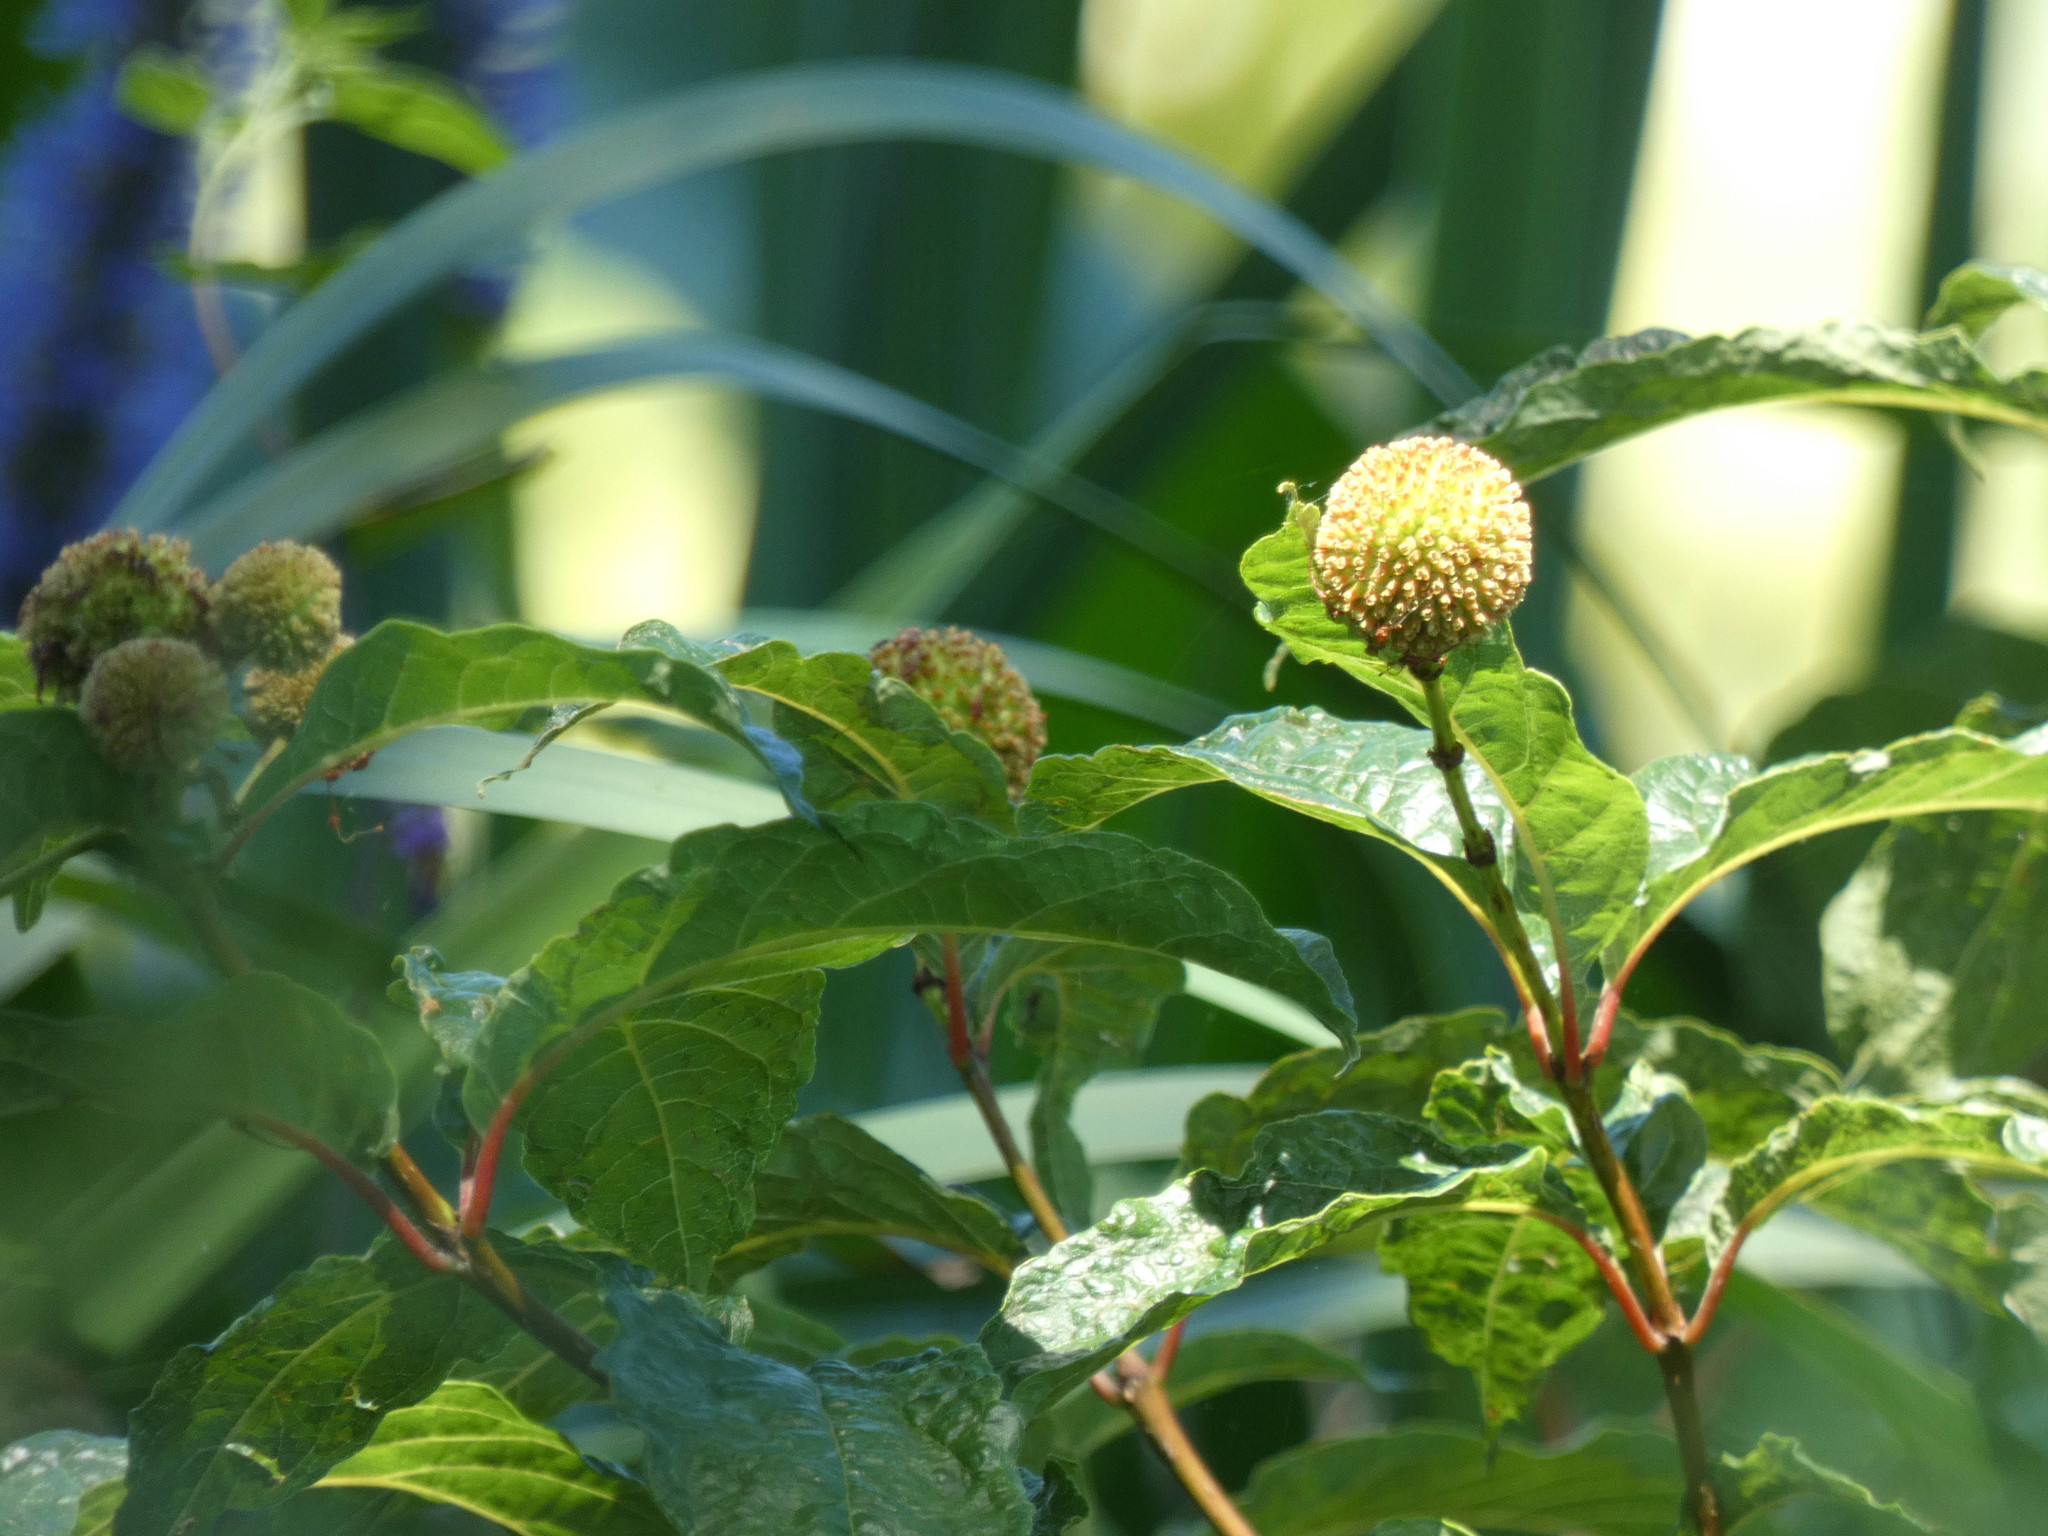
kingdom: Plantae
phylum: Tracheophyta
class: Magnoliopsida
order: Gentianales
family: Rubiaceae
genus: Cephalanthus
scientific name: Cephalanthus occidentalis
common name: Button-willow
